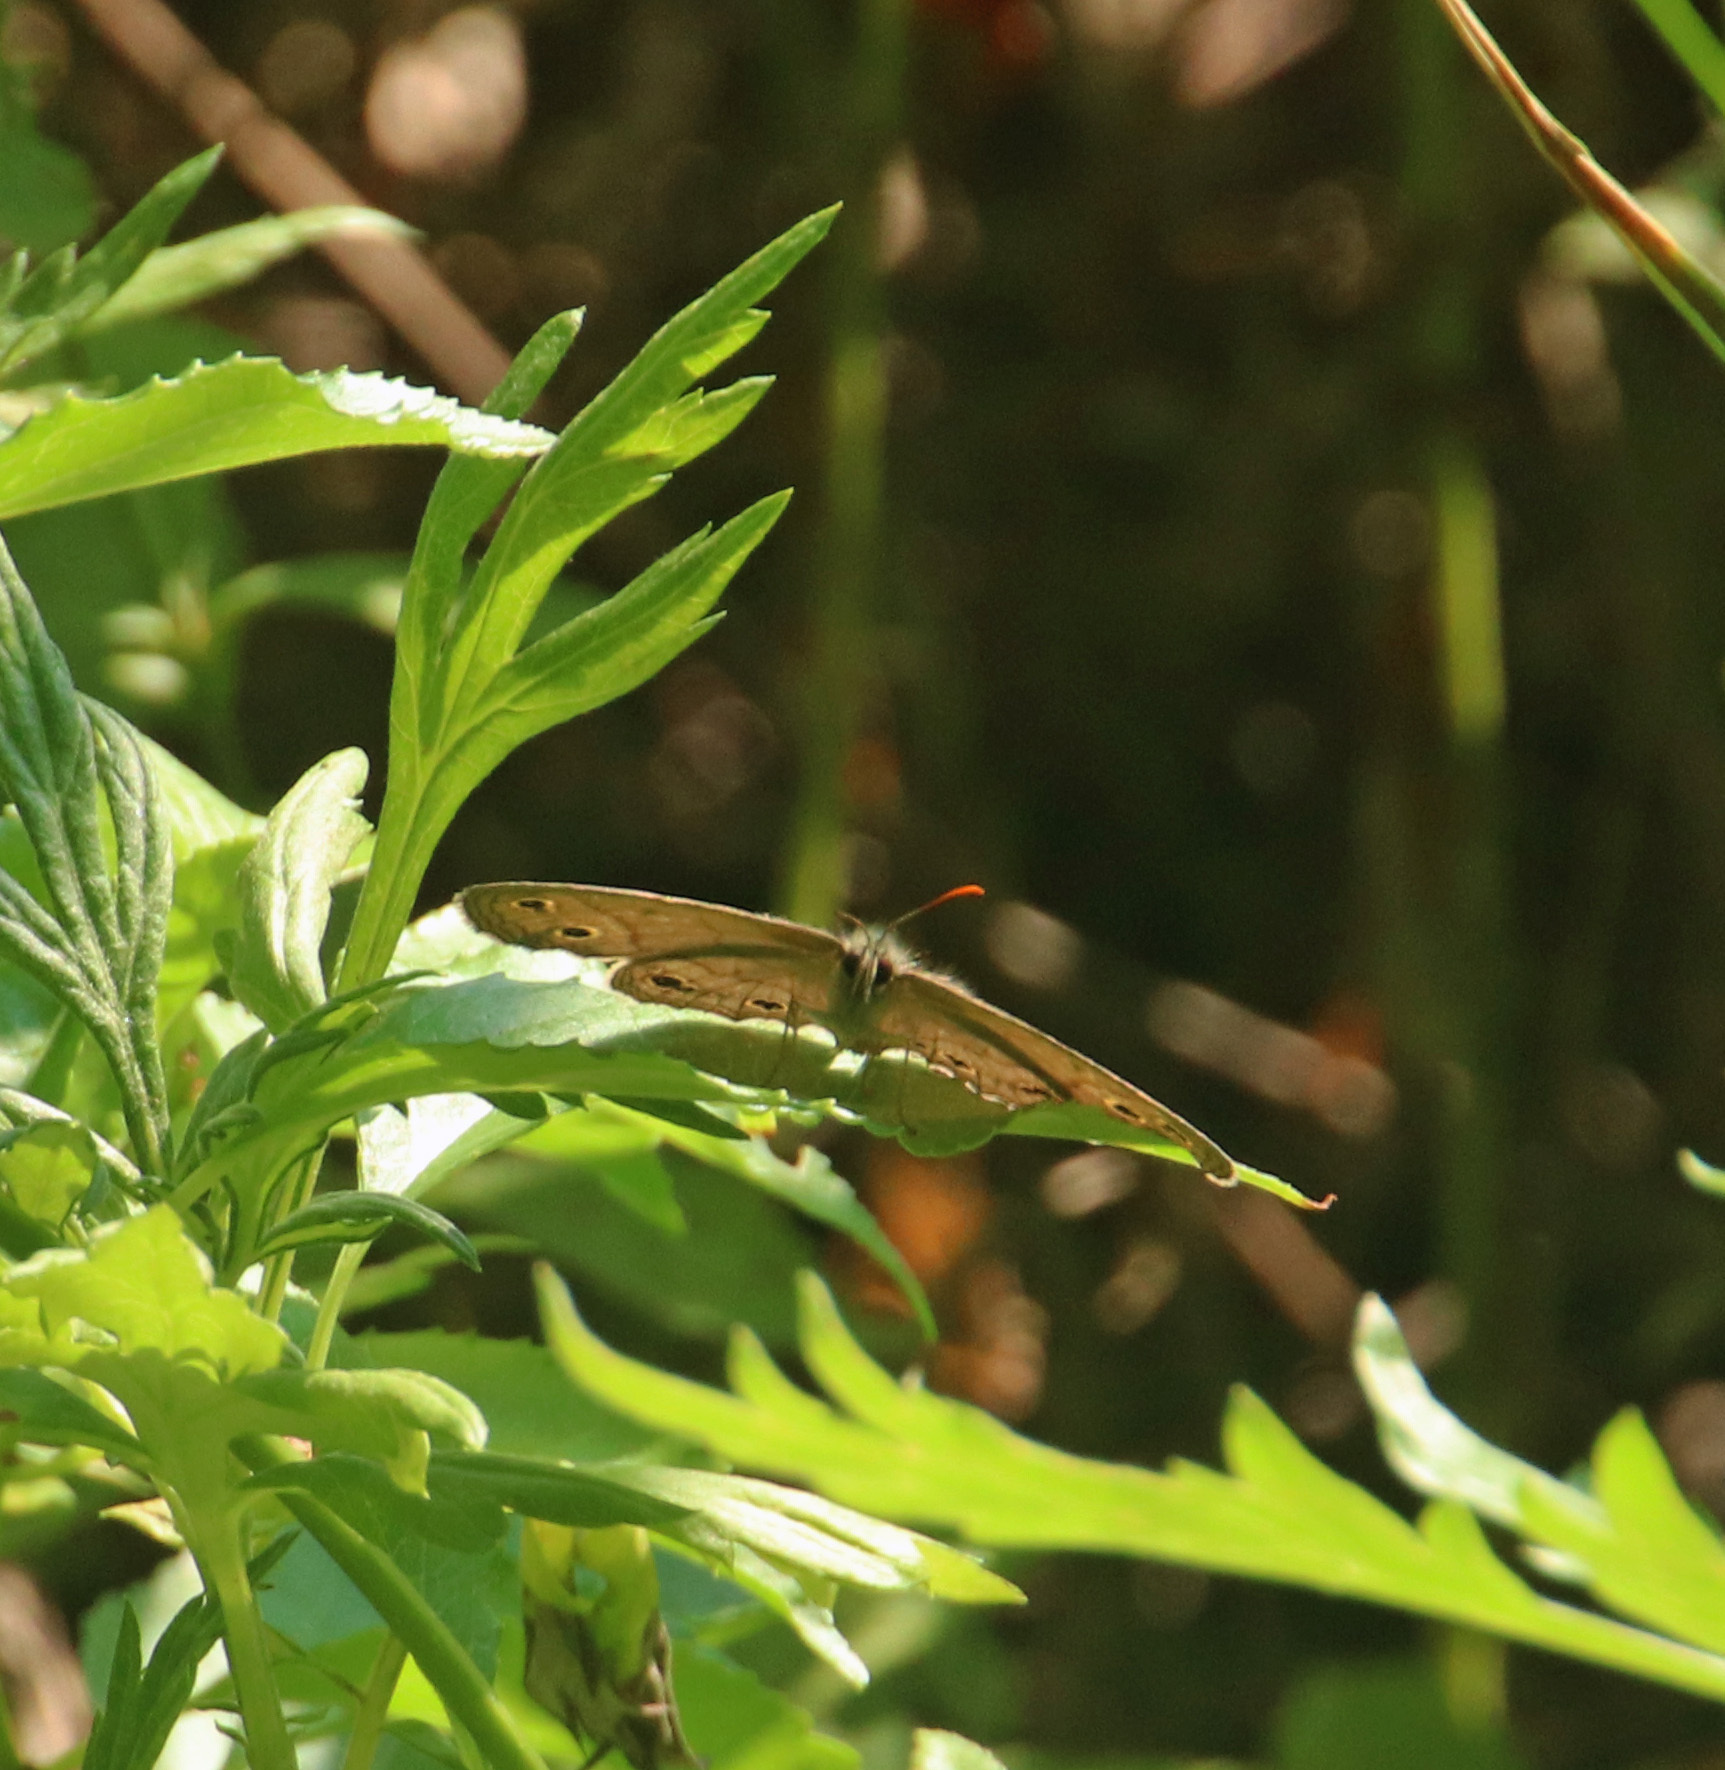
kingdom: Animalia
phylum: Arthropoda
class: Insecta
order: Lepidoptera
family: Nymphalidae
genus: Euptychia
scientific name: Euptychia cymela
